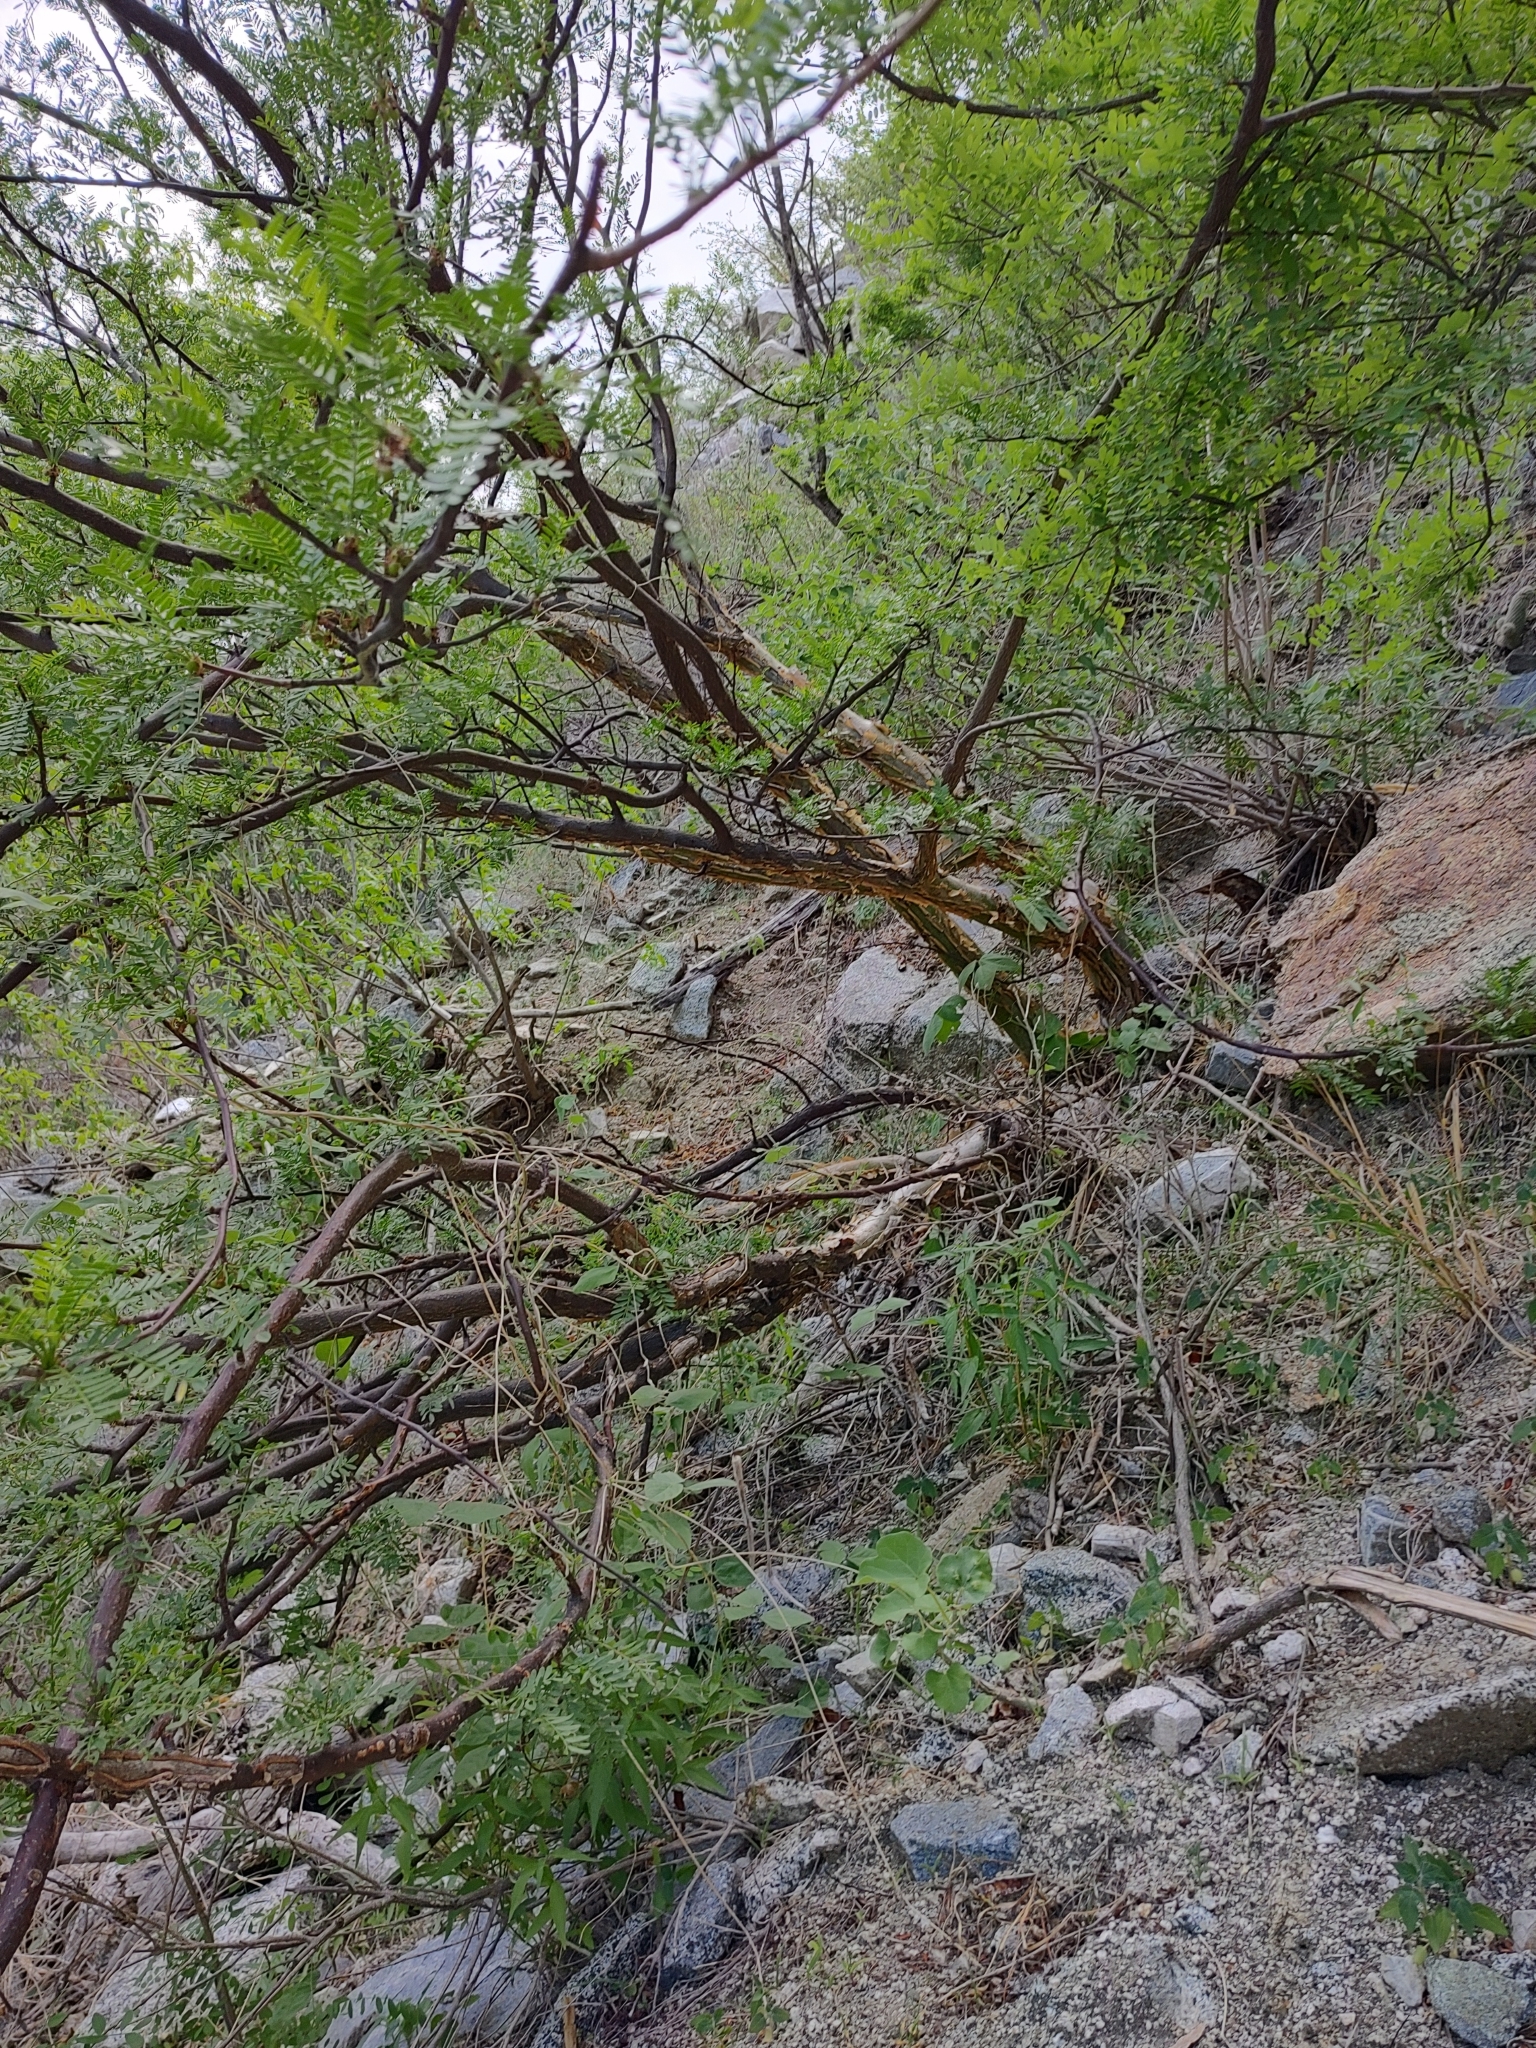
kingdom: Plantae
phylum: Tracheophyta
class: Magnoliopsida
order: Sapindales
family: Burseraceae
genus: Bursera
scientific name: Bursera microphylla
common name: Elephant tree
